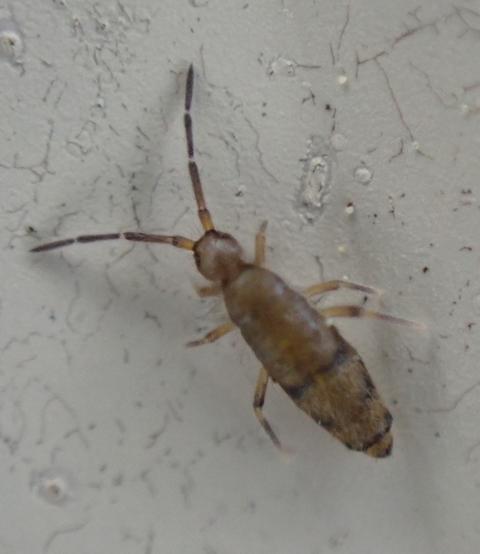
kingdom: Animalia
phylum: Arthropoda
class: Collembola
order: Entomobryomorpha
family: Entomobryidae
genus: Willowsia
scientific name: Willowsia nigromaculata
